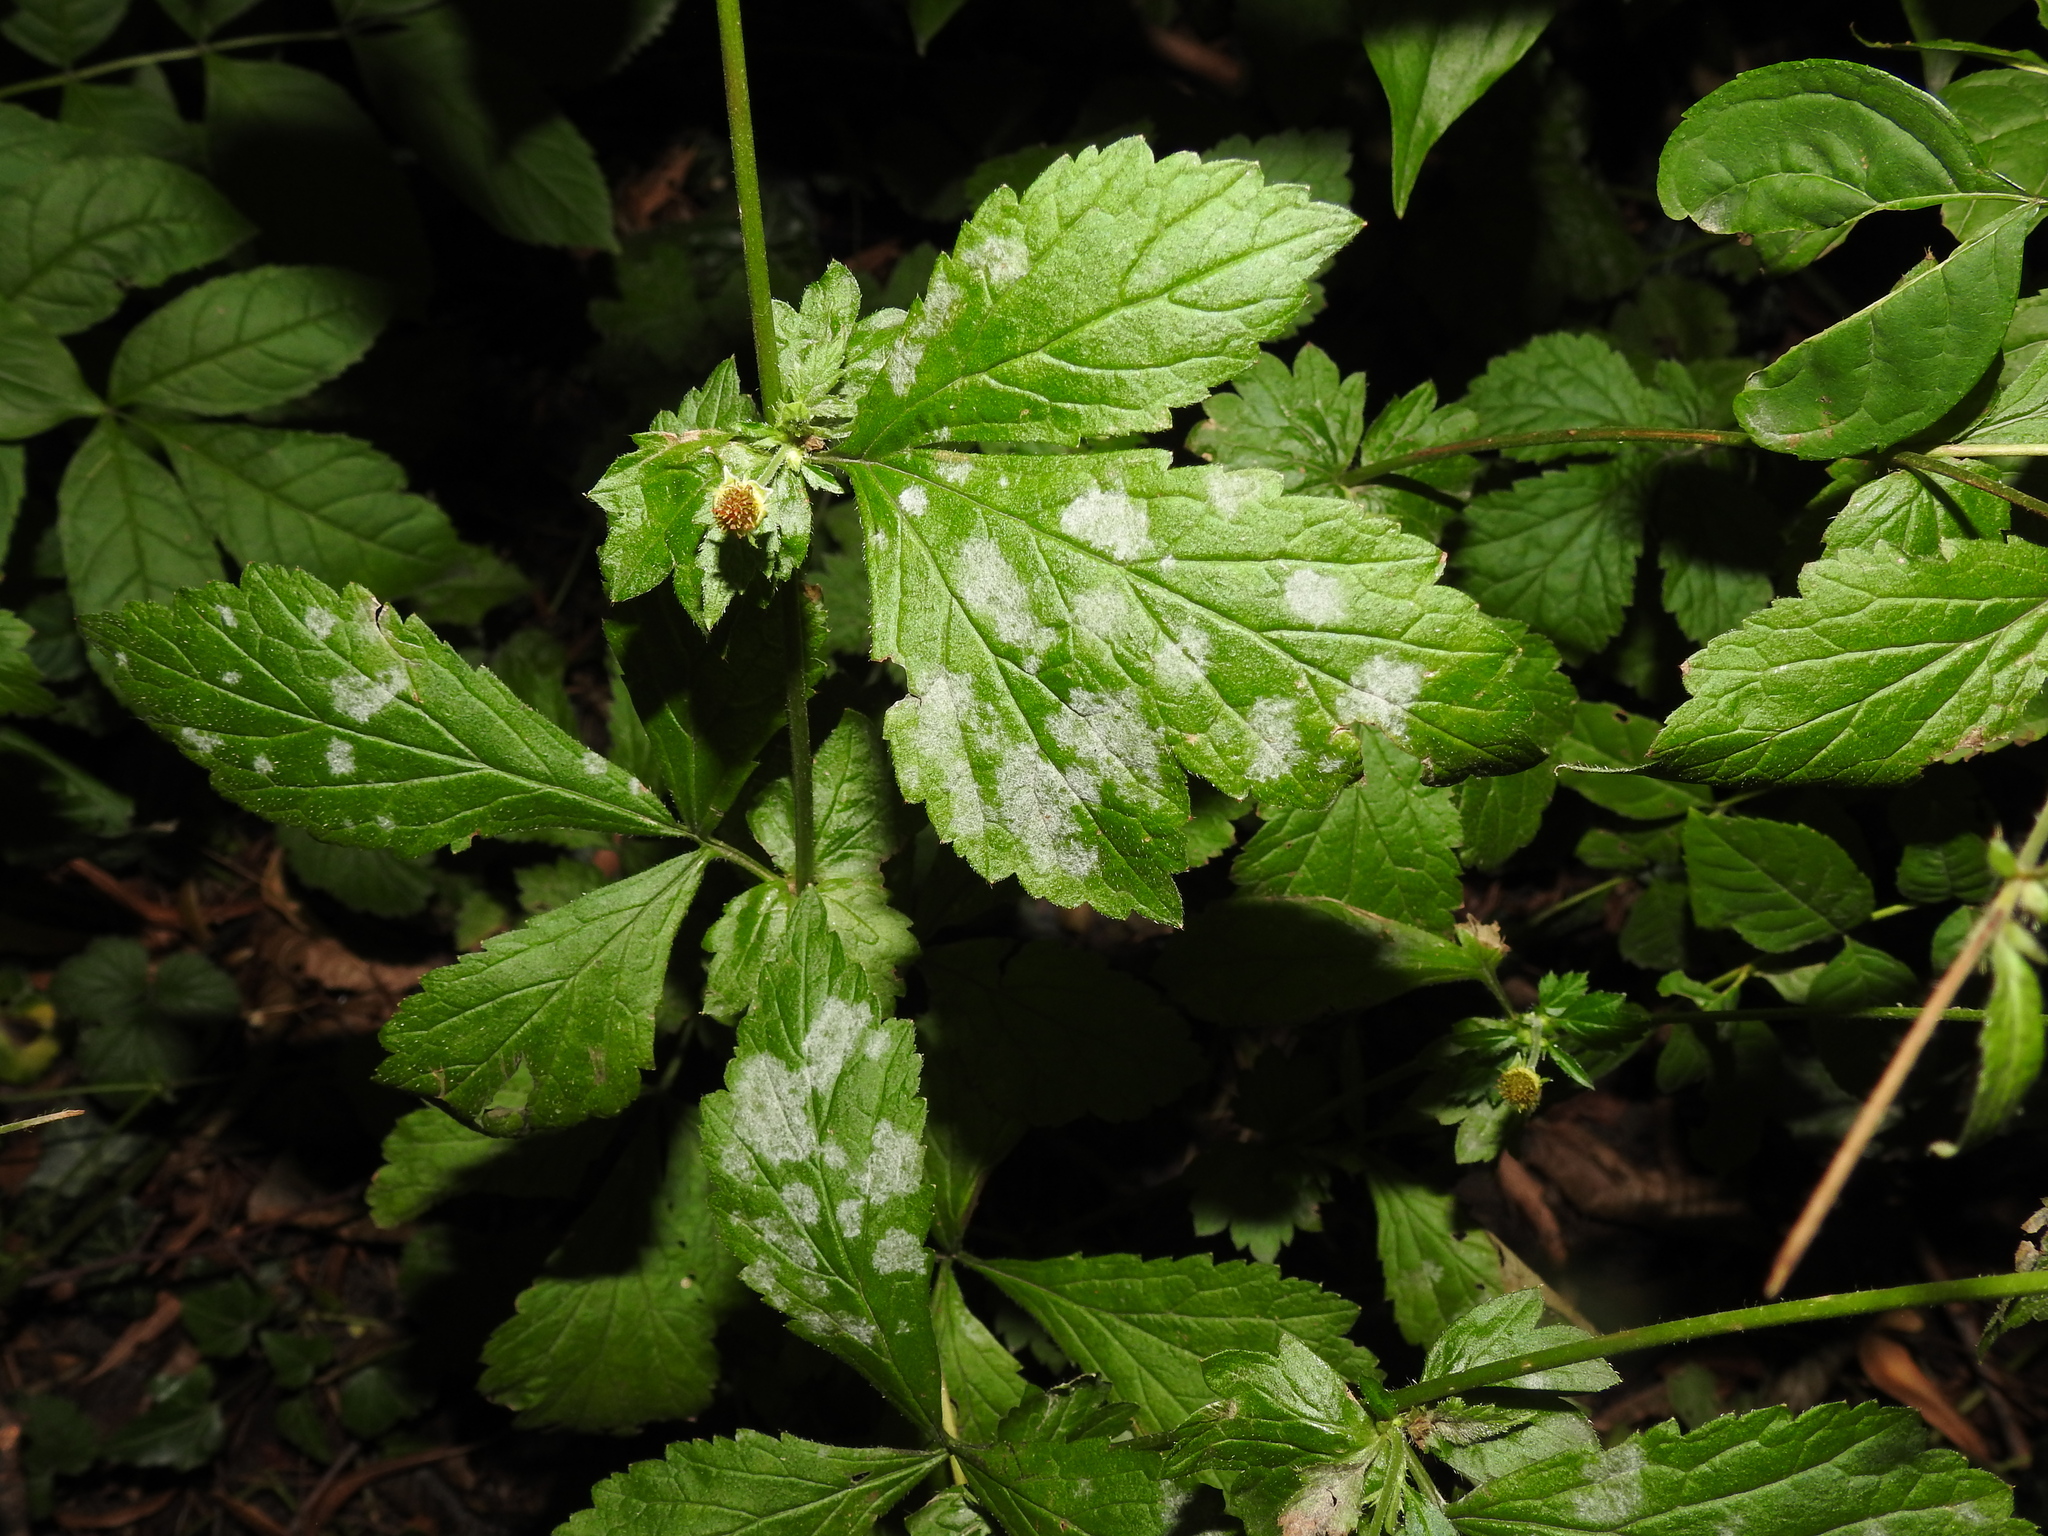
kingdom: Fungi
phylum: Ascomycota
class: Leotiomycetes
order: Helotiales
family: Erysiphaceae
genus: Podosphaera
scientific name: Podosphaera aphanis
